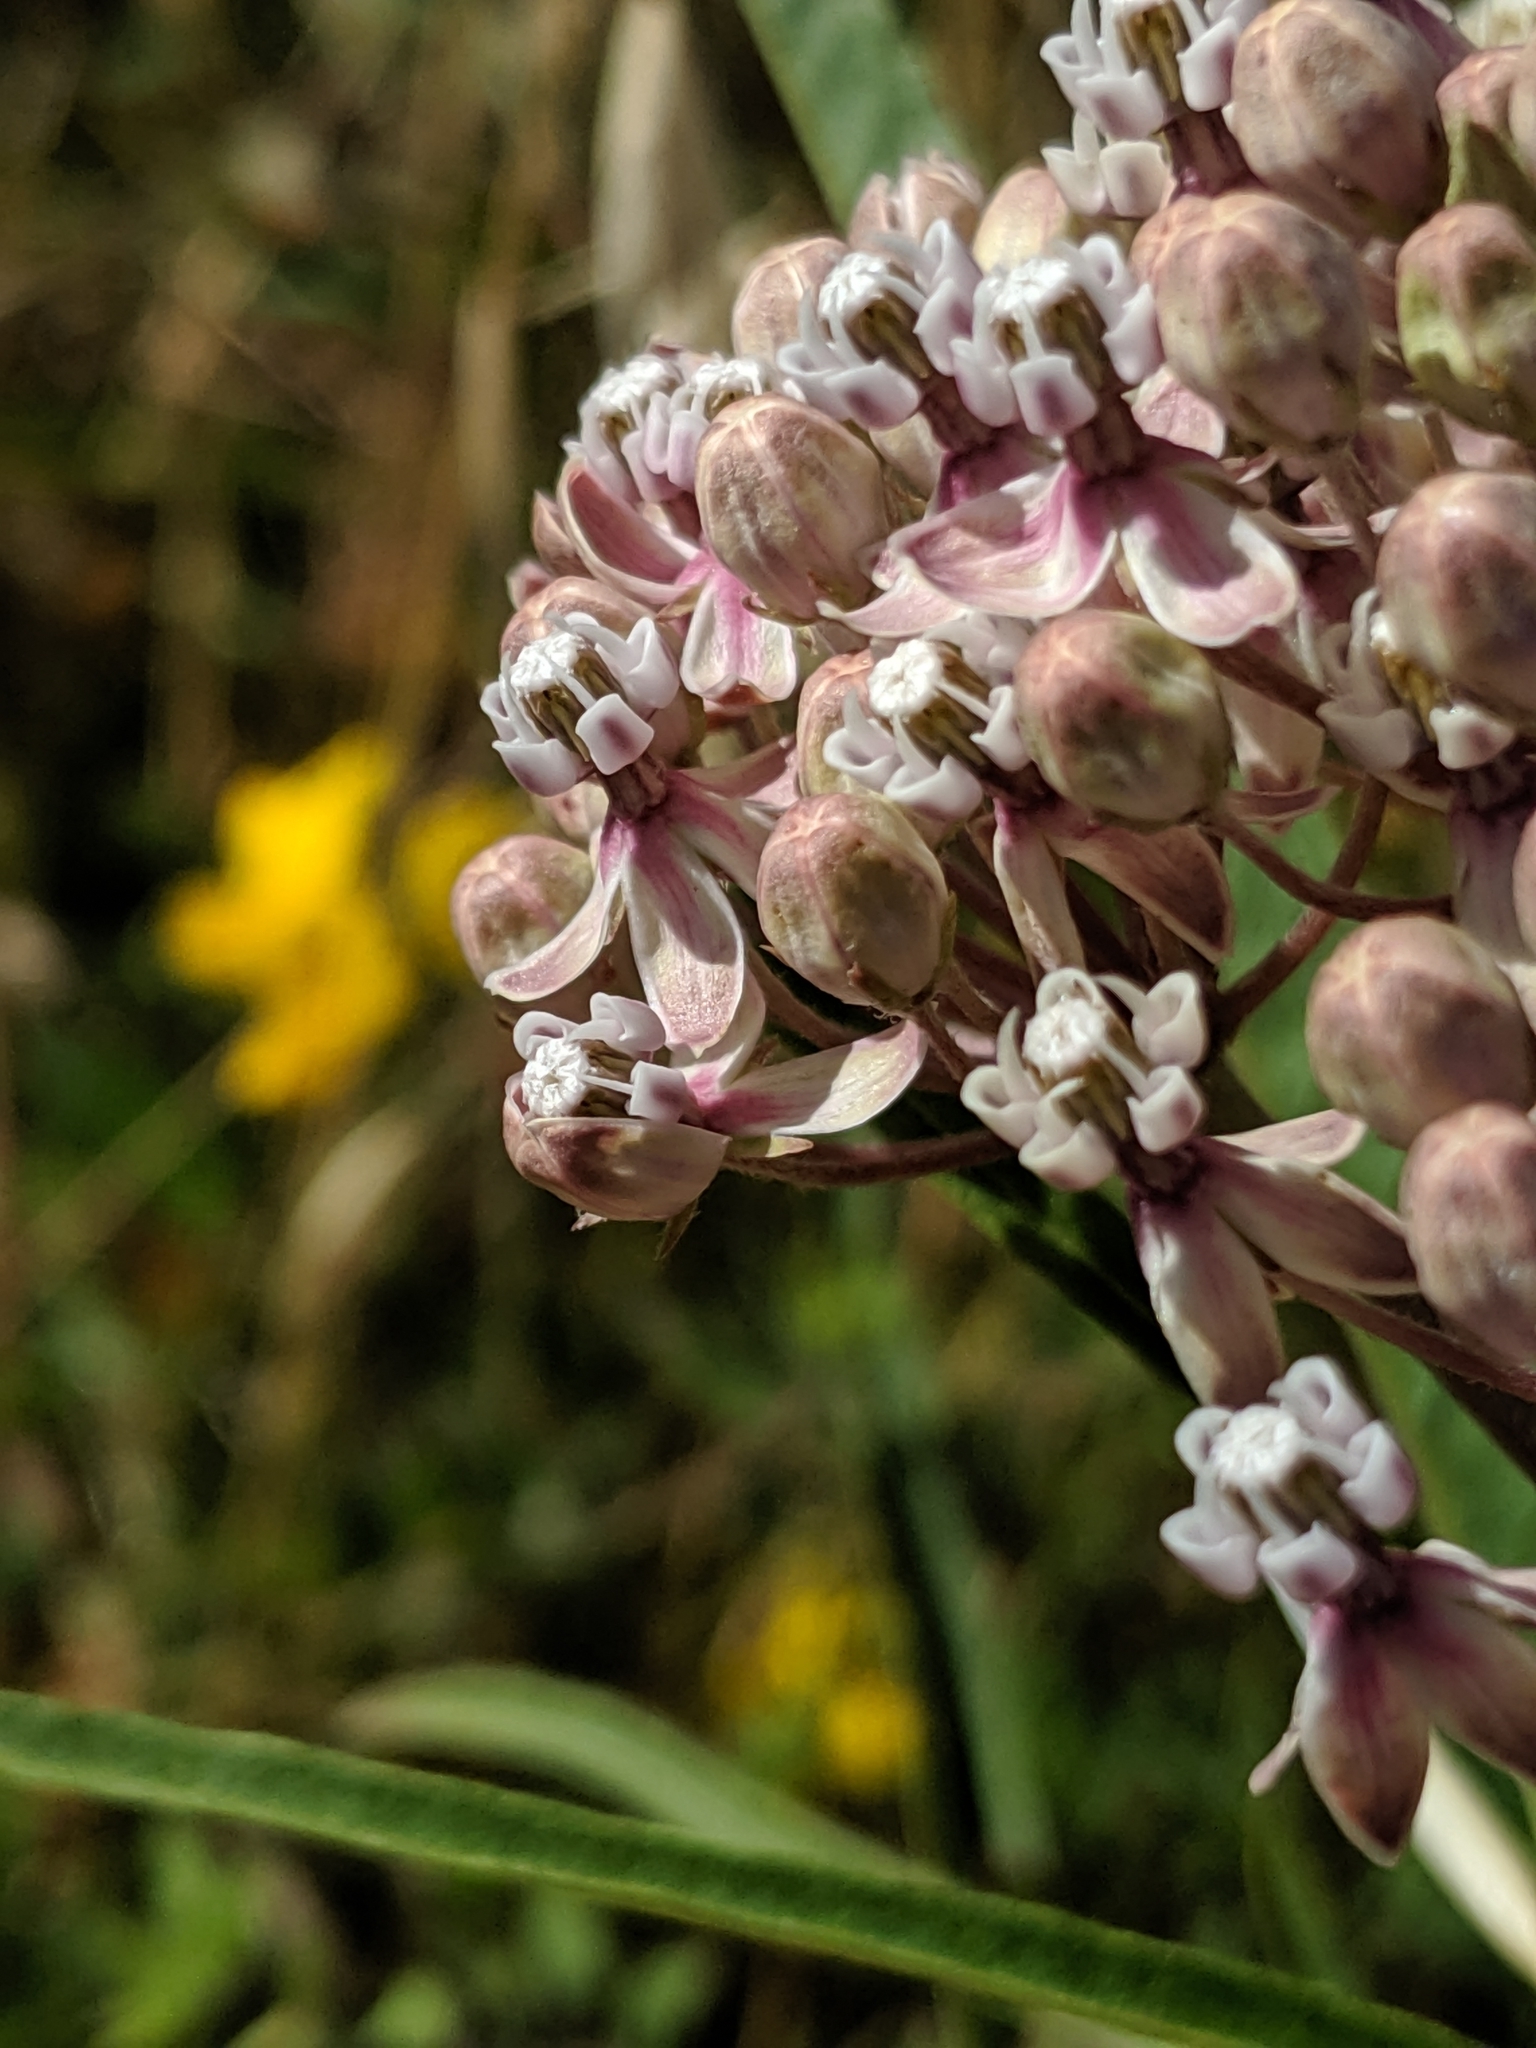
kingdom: Plantae
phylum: Tracheophyta
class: Magnoliopsida
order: Gentianales
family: Apocynaceae
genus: Asclepias
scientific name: Asclepias fascicularis
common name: Mexican milkweed
